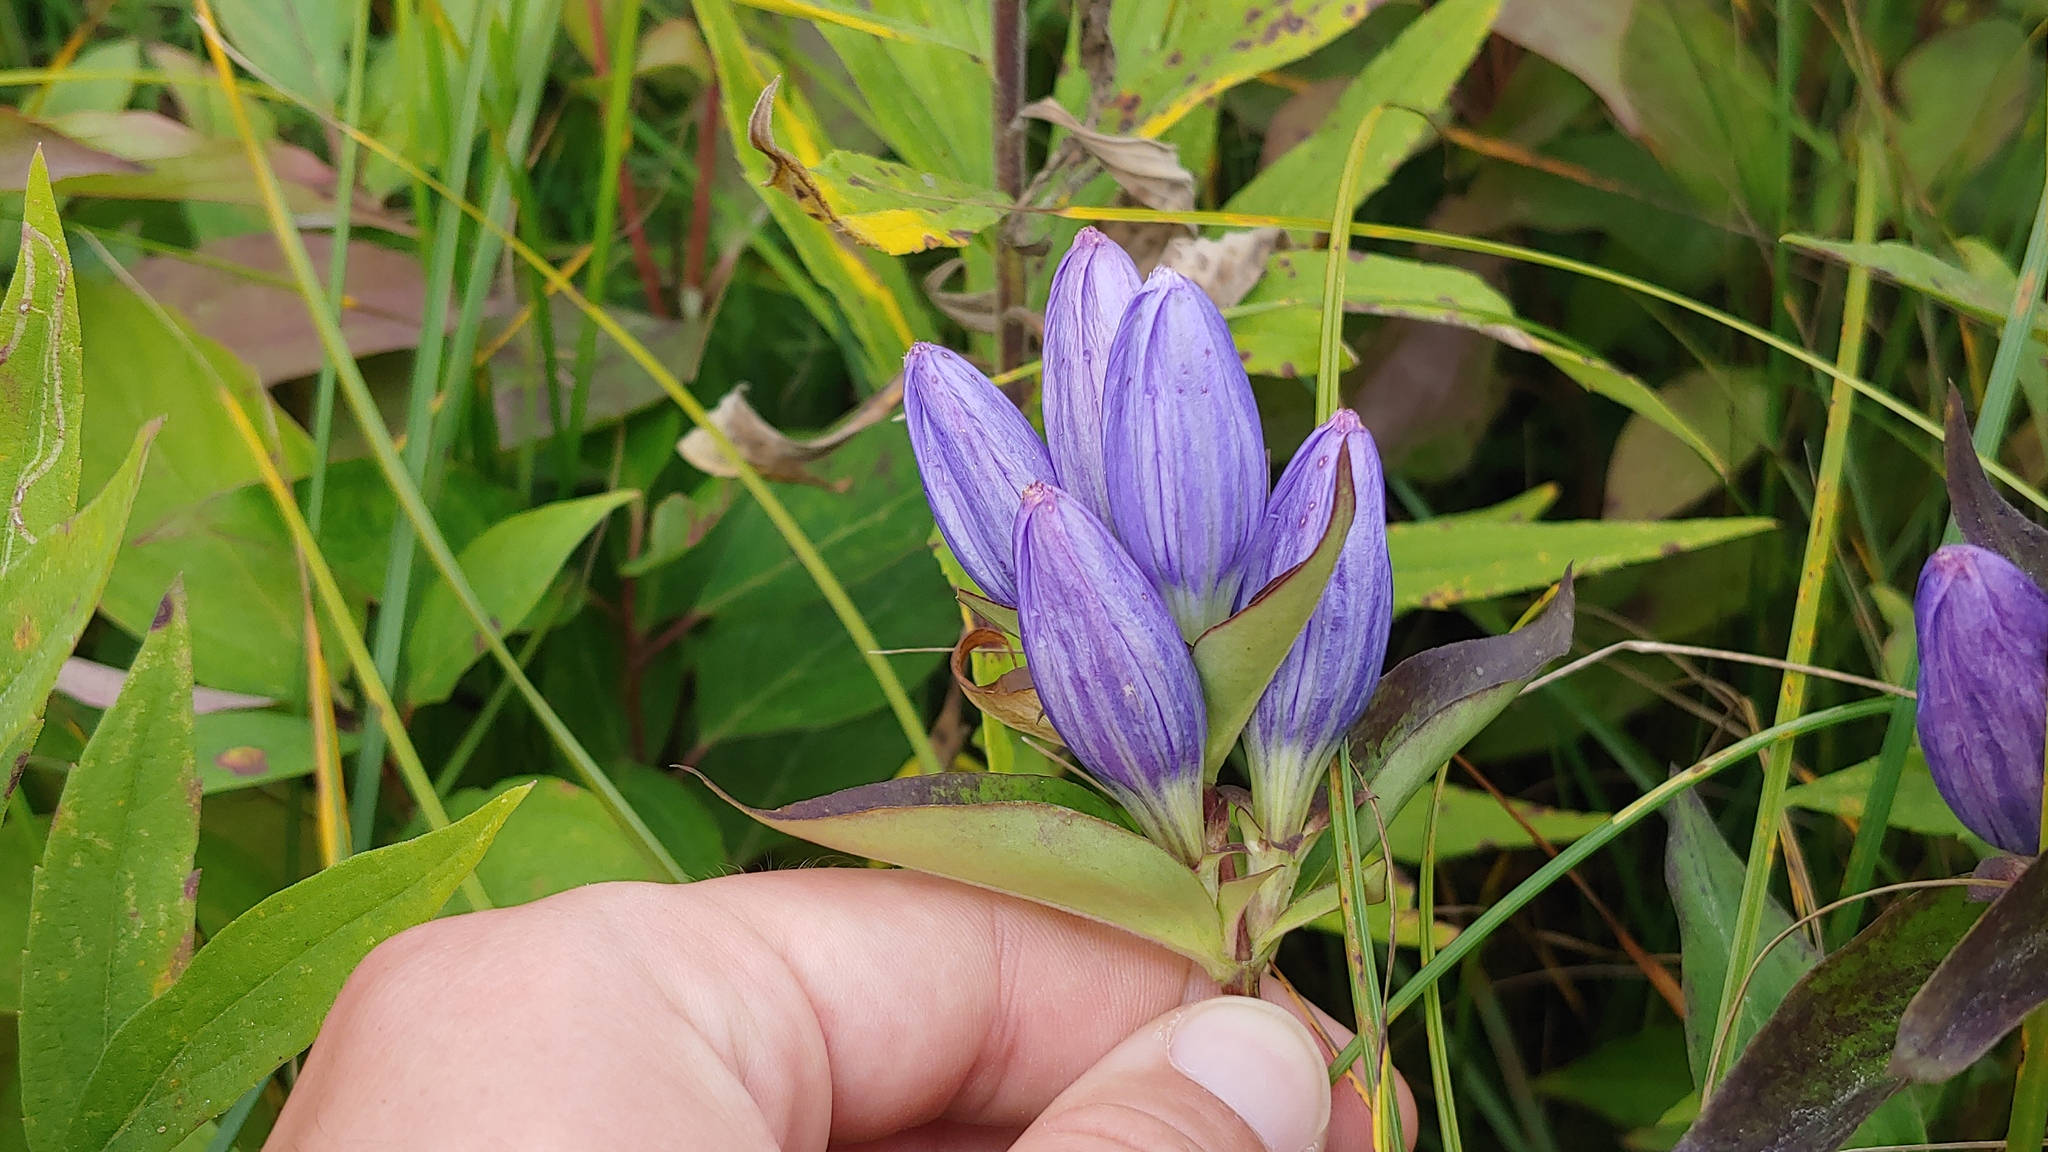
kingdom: Plantae
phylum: Tracheophyta
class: Magnoliopsida
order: Gentianales
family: Gentianaceae
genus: Gentiana
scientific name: Gentiana andrewsii
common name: Bottle gentian
